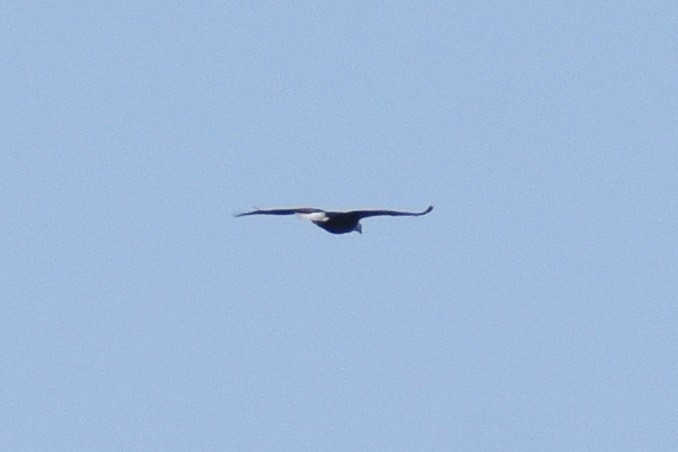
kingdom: Animalia
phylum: Chordata
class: Aves
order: Accipitriformes
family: Accipitridae
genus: Haliaeetus
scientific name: Haliaeetus leucocephalus
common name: Bald eagle
